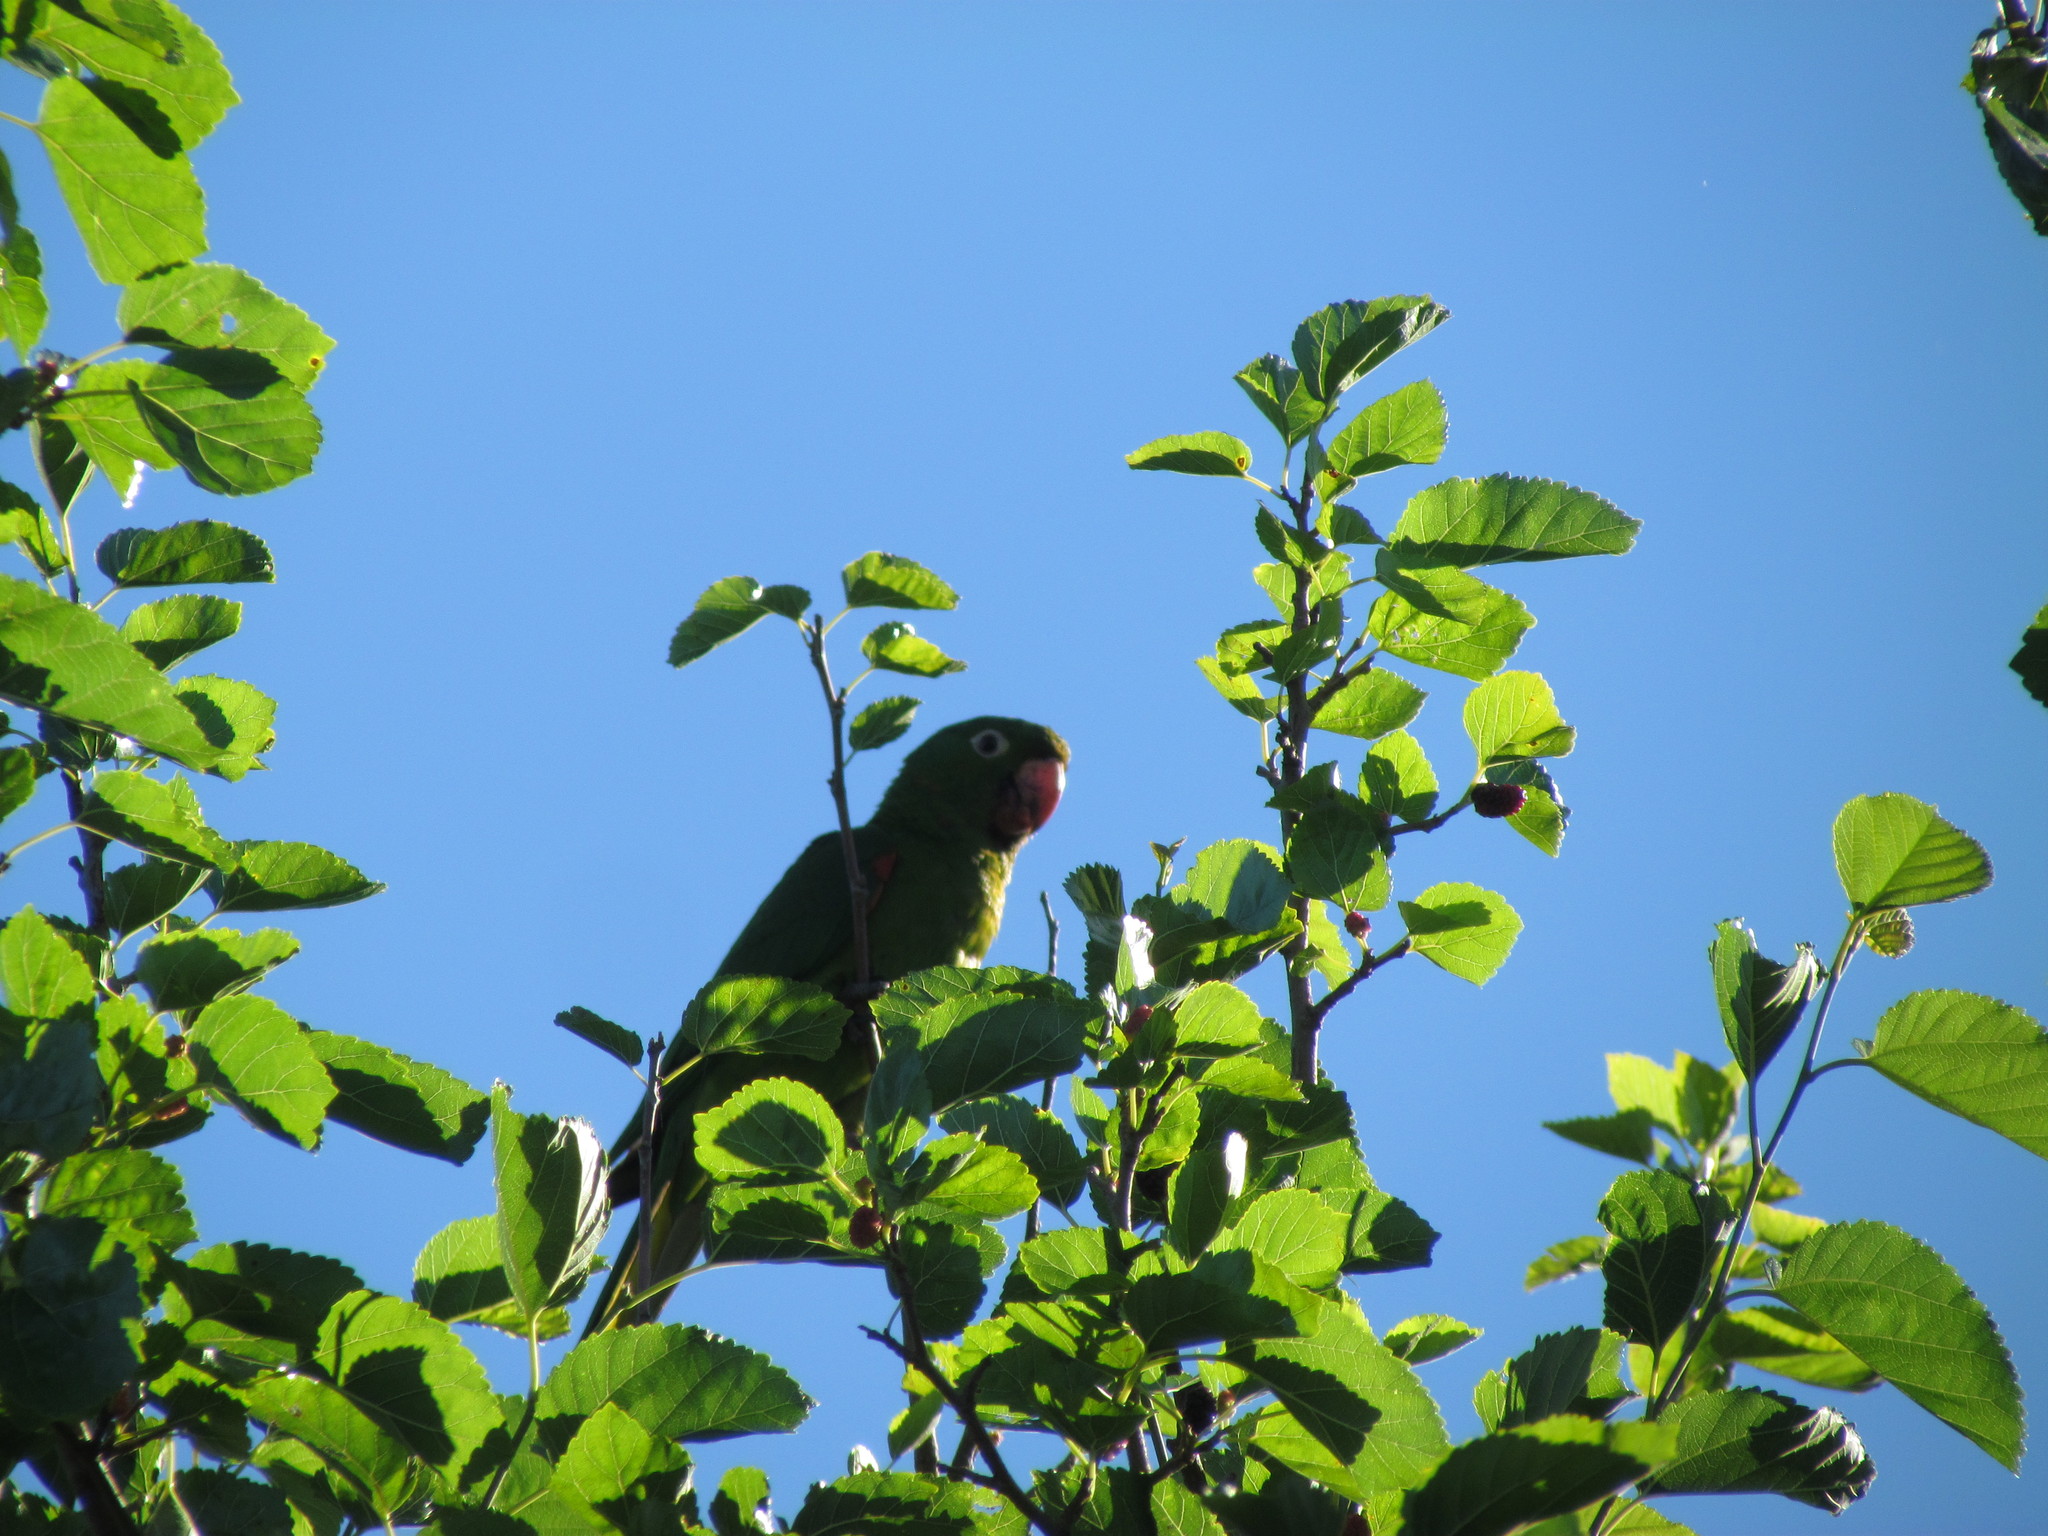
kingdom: Animalia
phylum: Chordata
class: Aves
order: Psittaciformes
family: Psittacidae
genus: Aratinga
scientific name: Aratinga leucophthalma
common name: White-eyed parakeet
